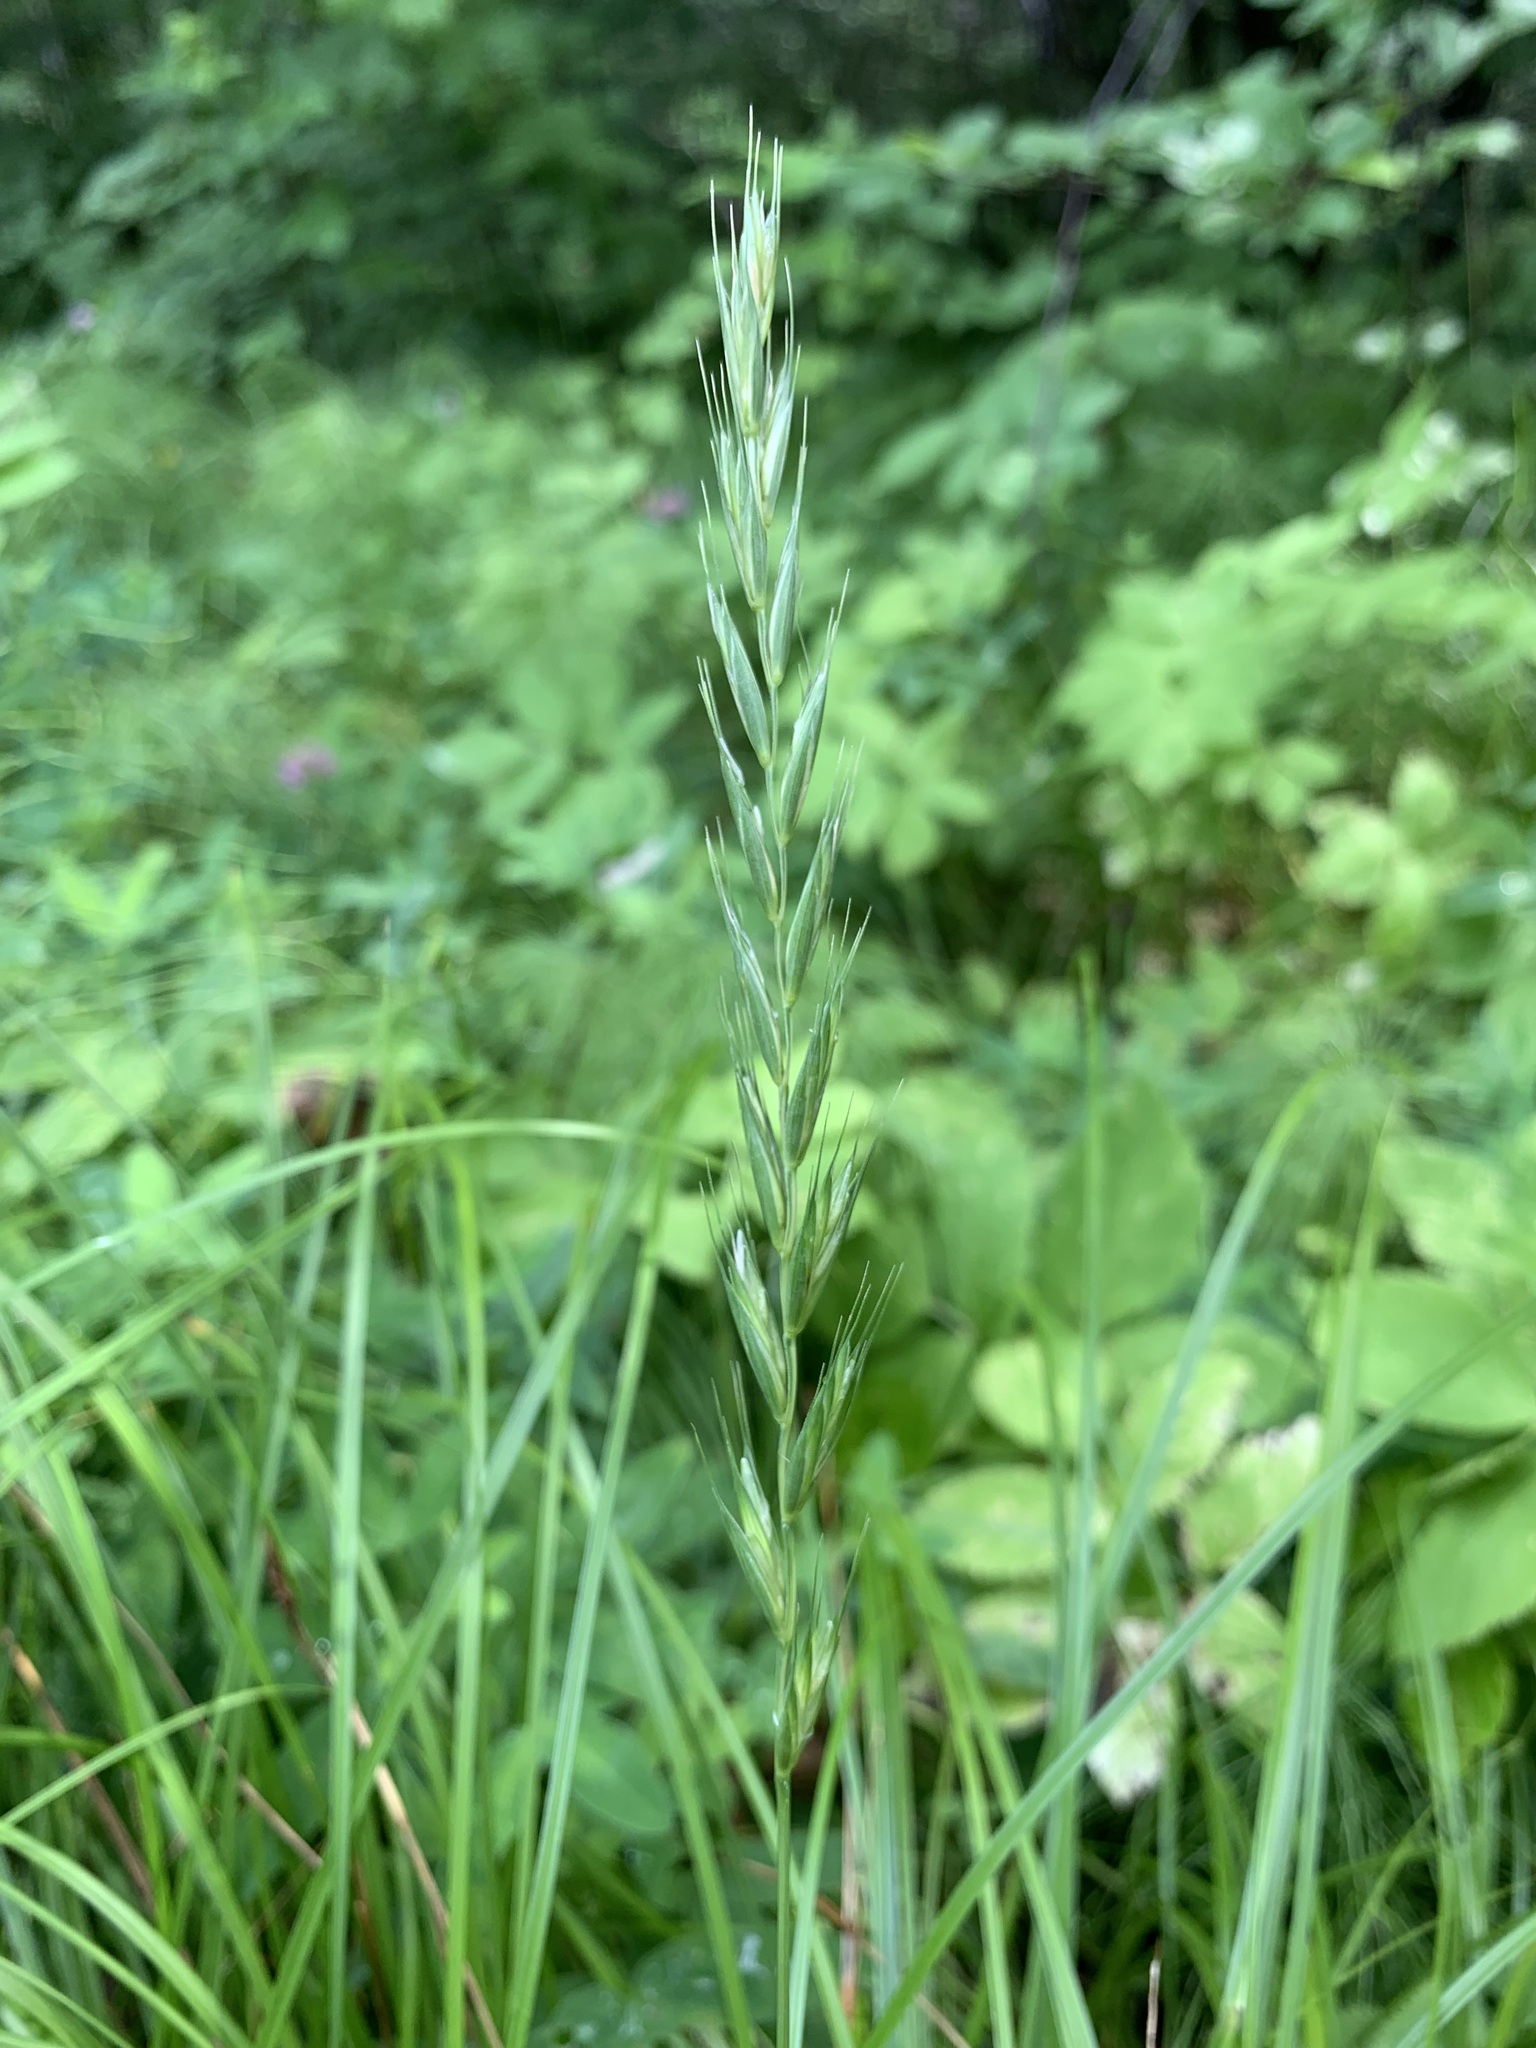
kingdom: Plantae
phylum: Tracheophyta
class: Liliopsida
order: Poales
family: Poaceae
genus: Elymus
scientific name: Elymus caninus
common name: Bearded couch
